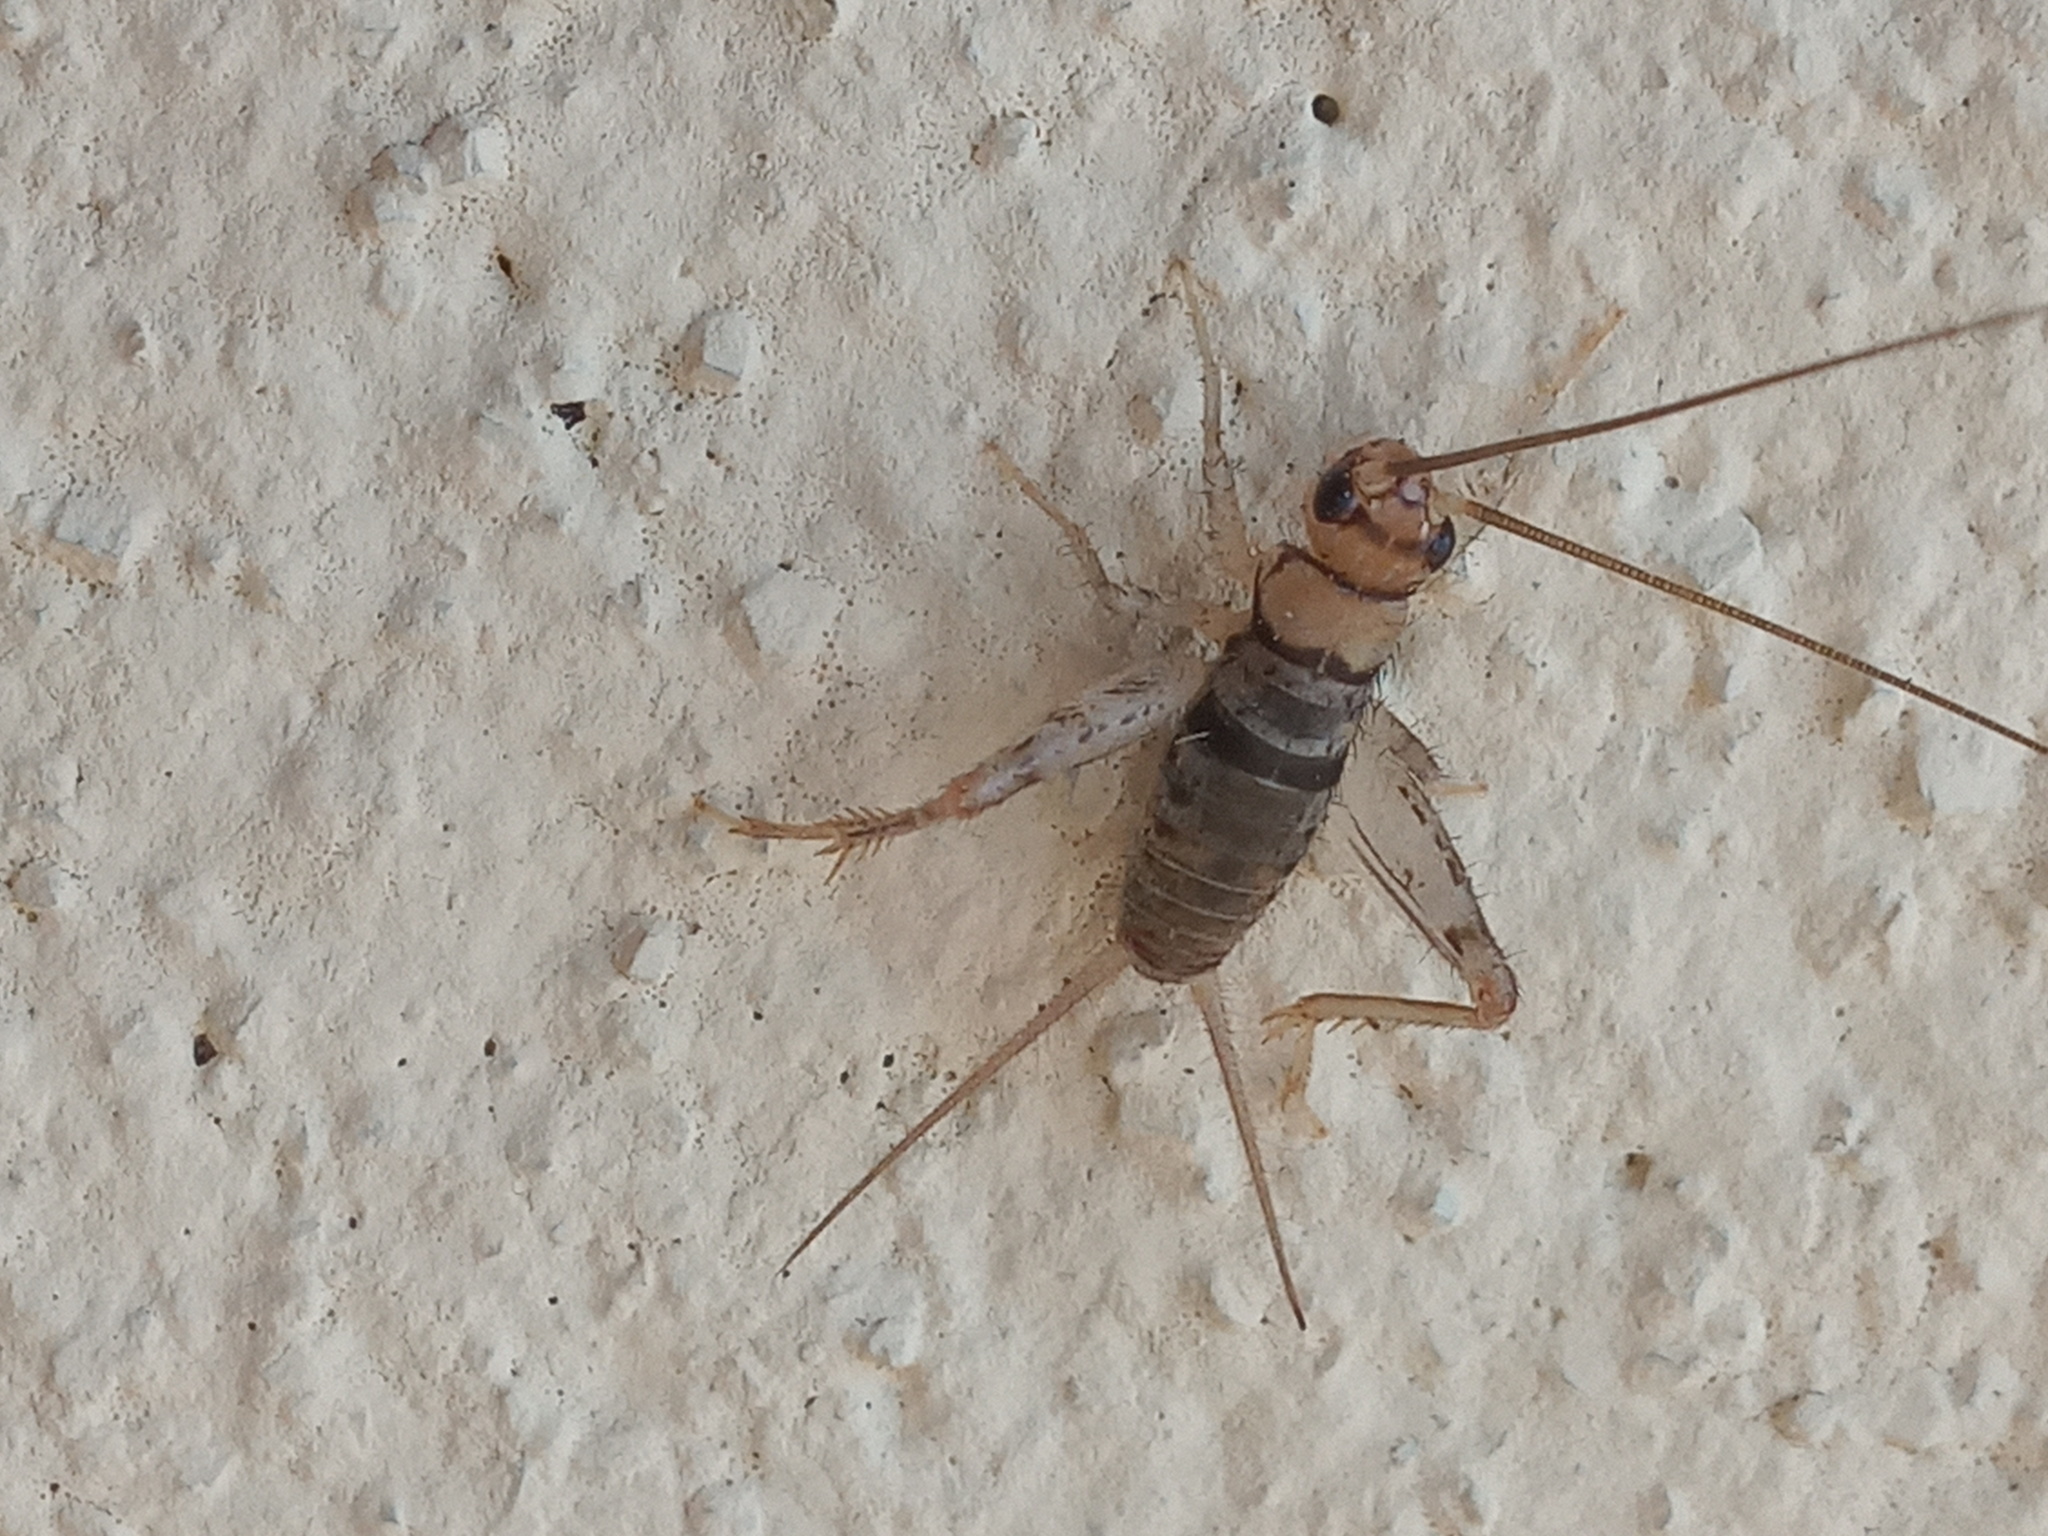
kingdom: Animalia
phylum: Arthropoda
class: Insecta
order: Orthoptera
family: Gryllidae
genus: Gryllodes
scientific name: Gryllodes sigillatus
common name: Tropical house cricket
